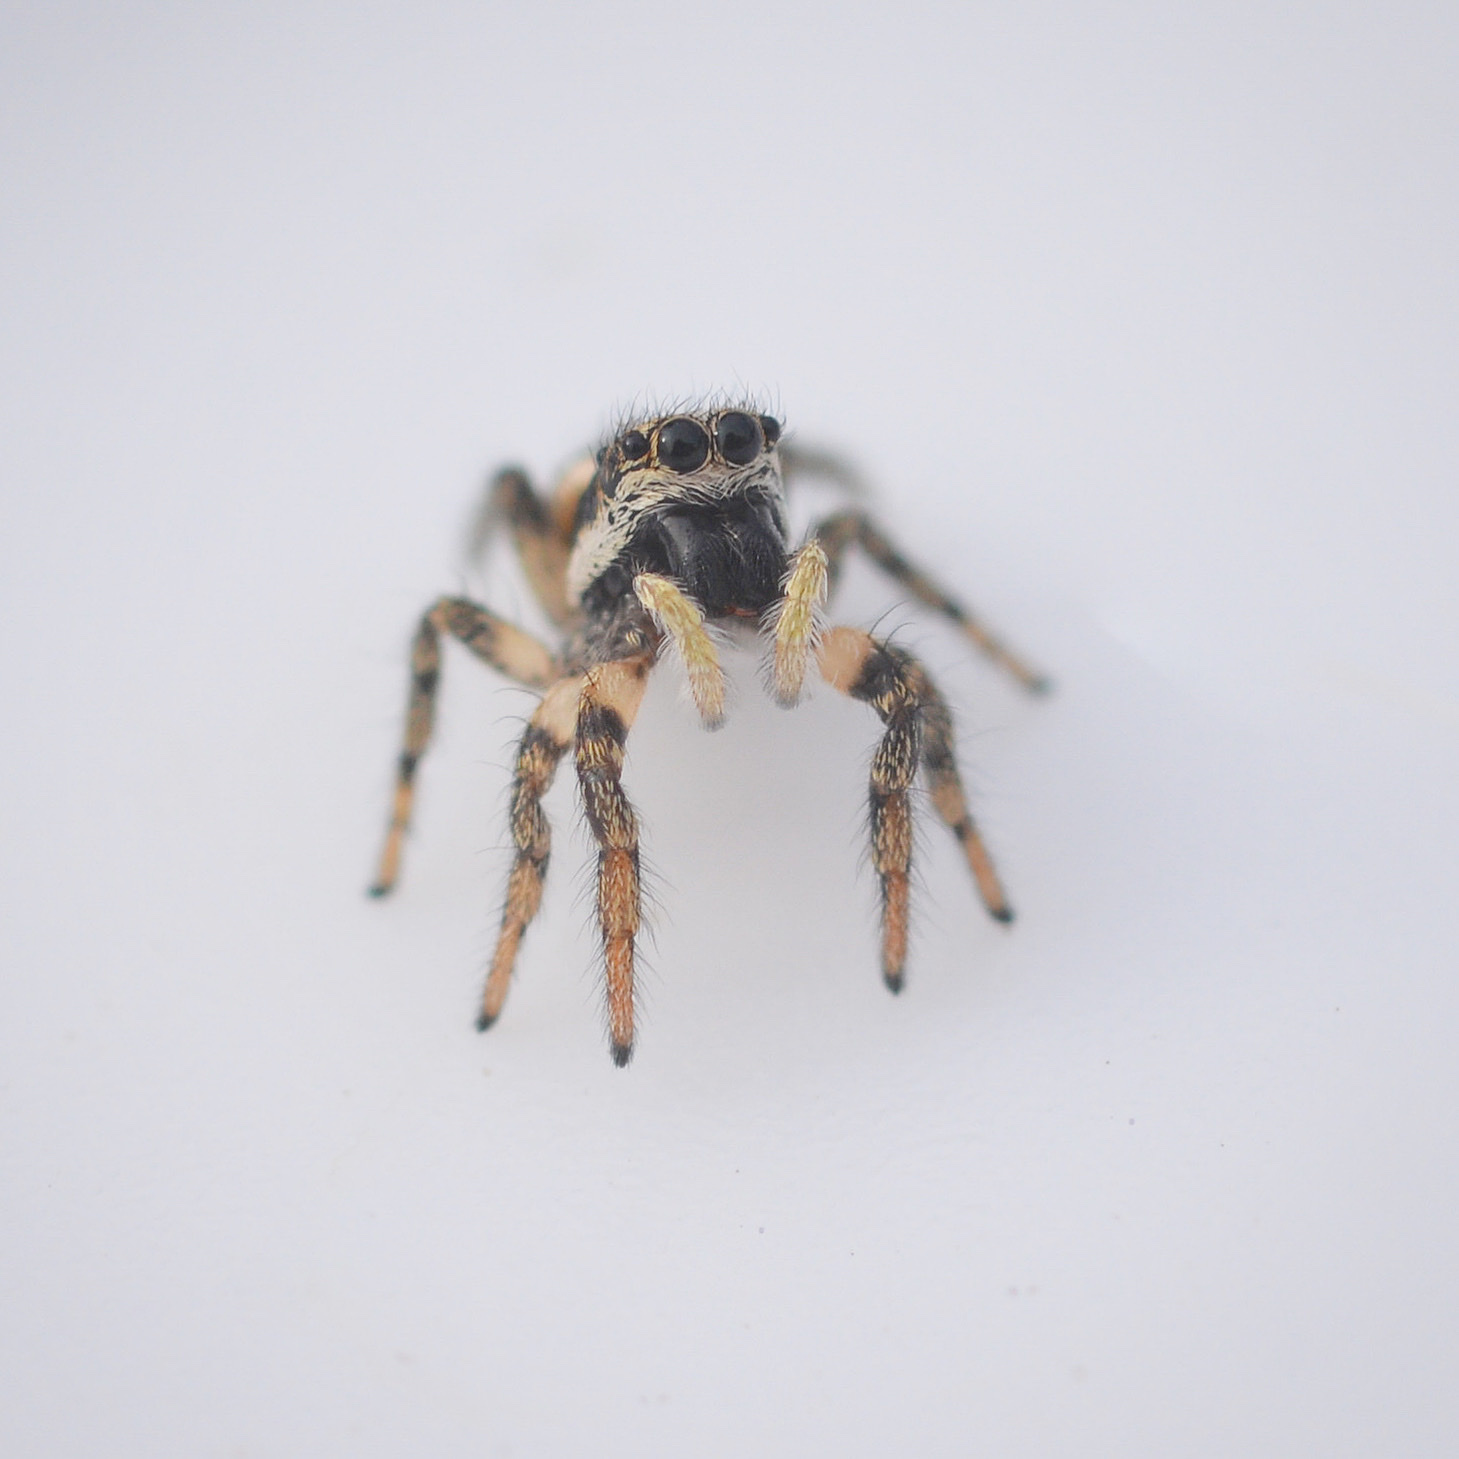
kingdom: Animalia
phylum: Arthropoda
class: Arachnida
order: Araneae
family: Salticidae
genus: Salticus
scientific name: Salticus scenicus
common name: Zebra jumper
